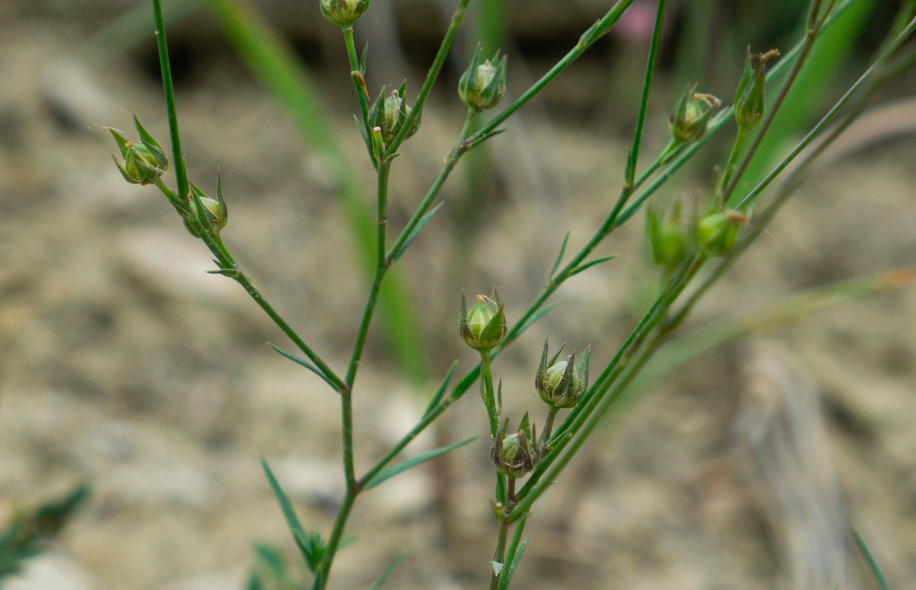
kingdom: Plantae
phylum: Tracheophyta
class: Magnoliopsida
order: Malpighiales
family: Linaceae
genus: Linum
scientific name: Linum tenuifolium
